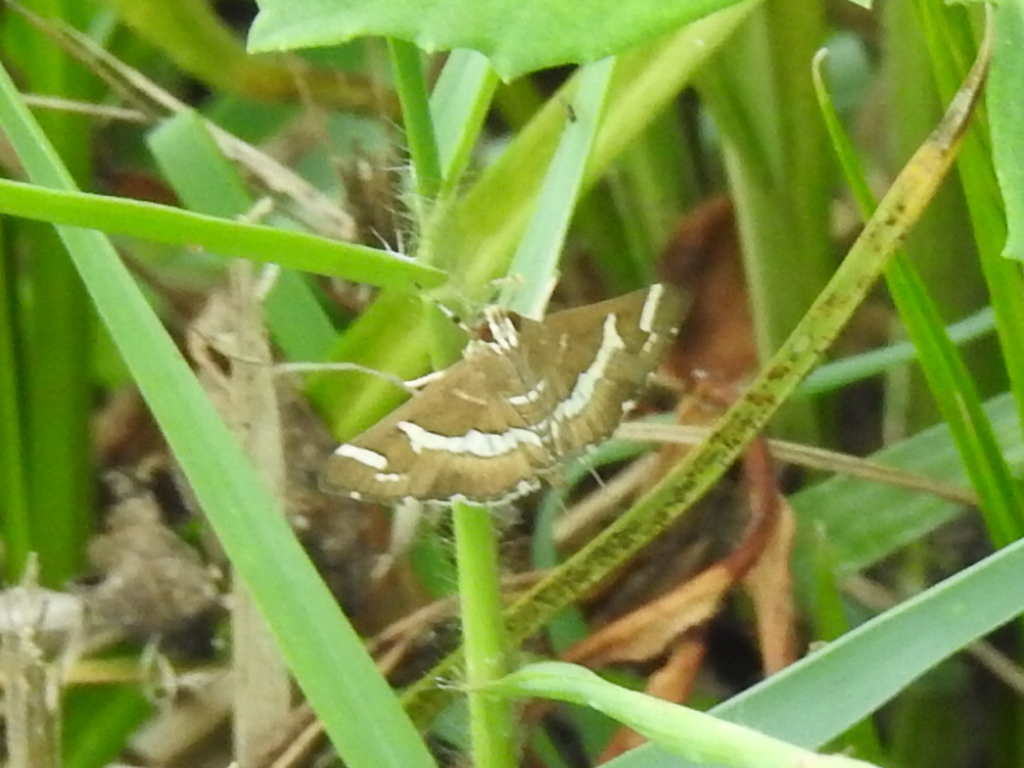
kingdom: Animalia
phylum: Arthropoda
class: Insecta
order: Lepidoptera
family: Crambidae
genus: Spoladea
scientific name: Spoladea recurvalis
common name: Beet webworm moth
